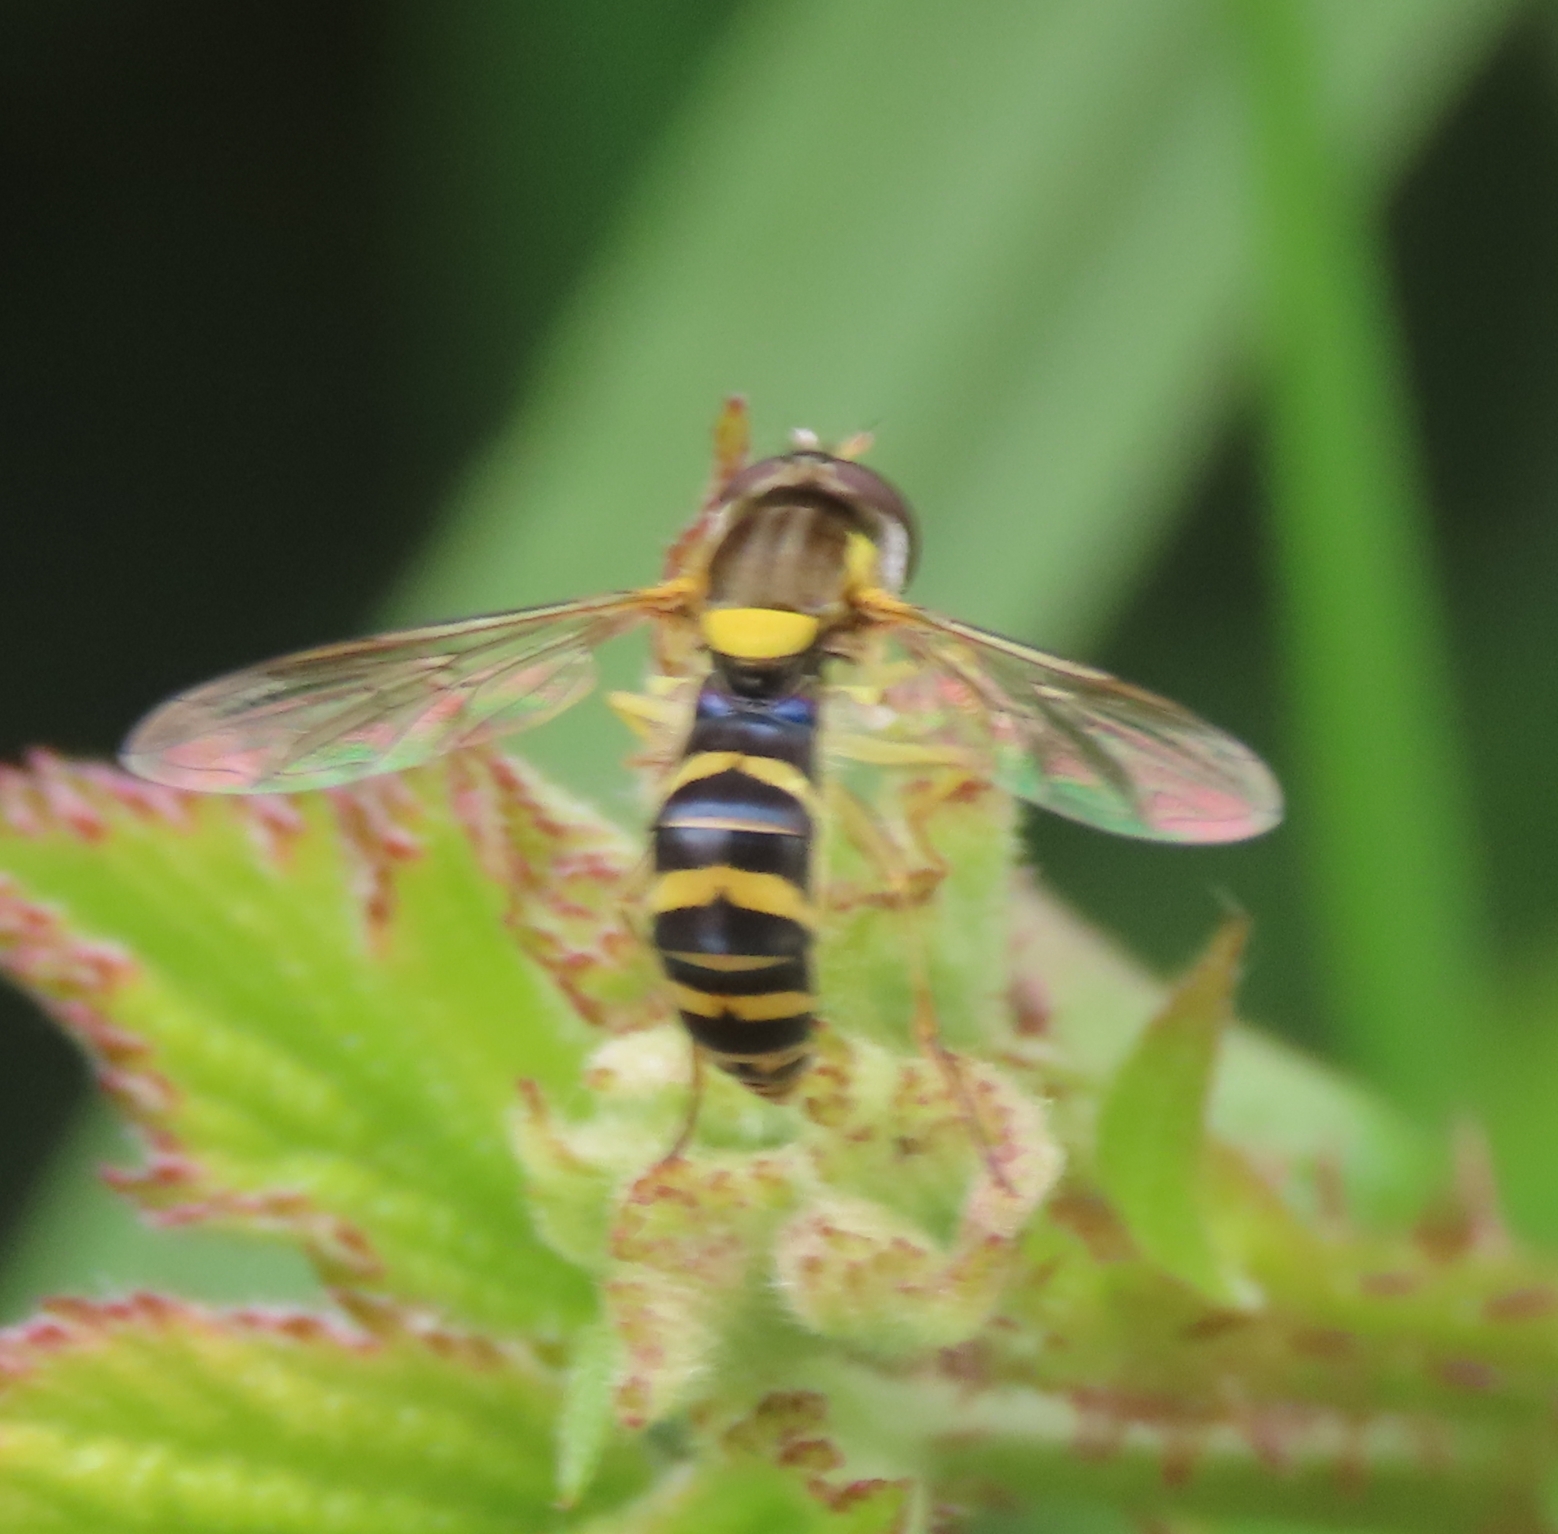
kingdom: Animalia
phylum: Arthropoda
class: Insecta
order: Diptera
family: Syrphidae
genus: Sphaerophoria
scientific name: Sphaerophoria
